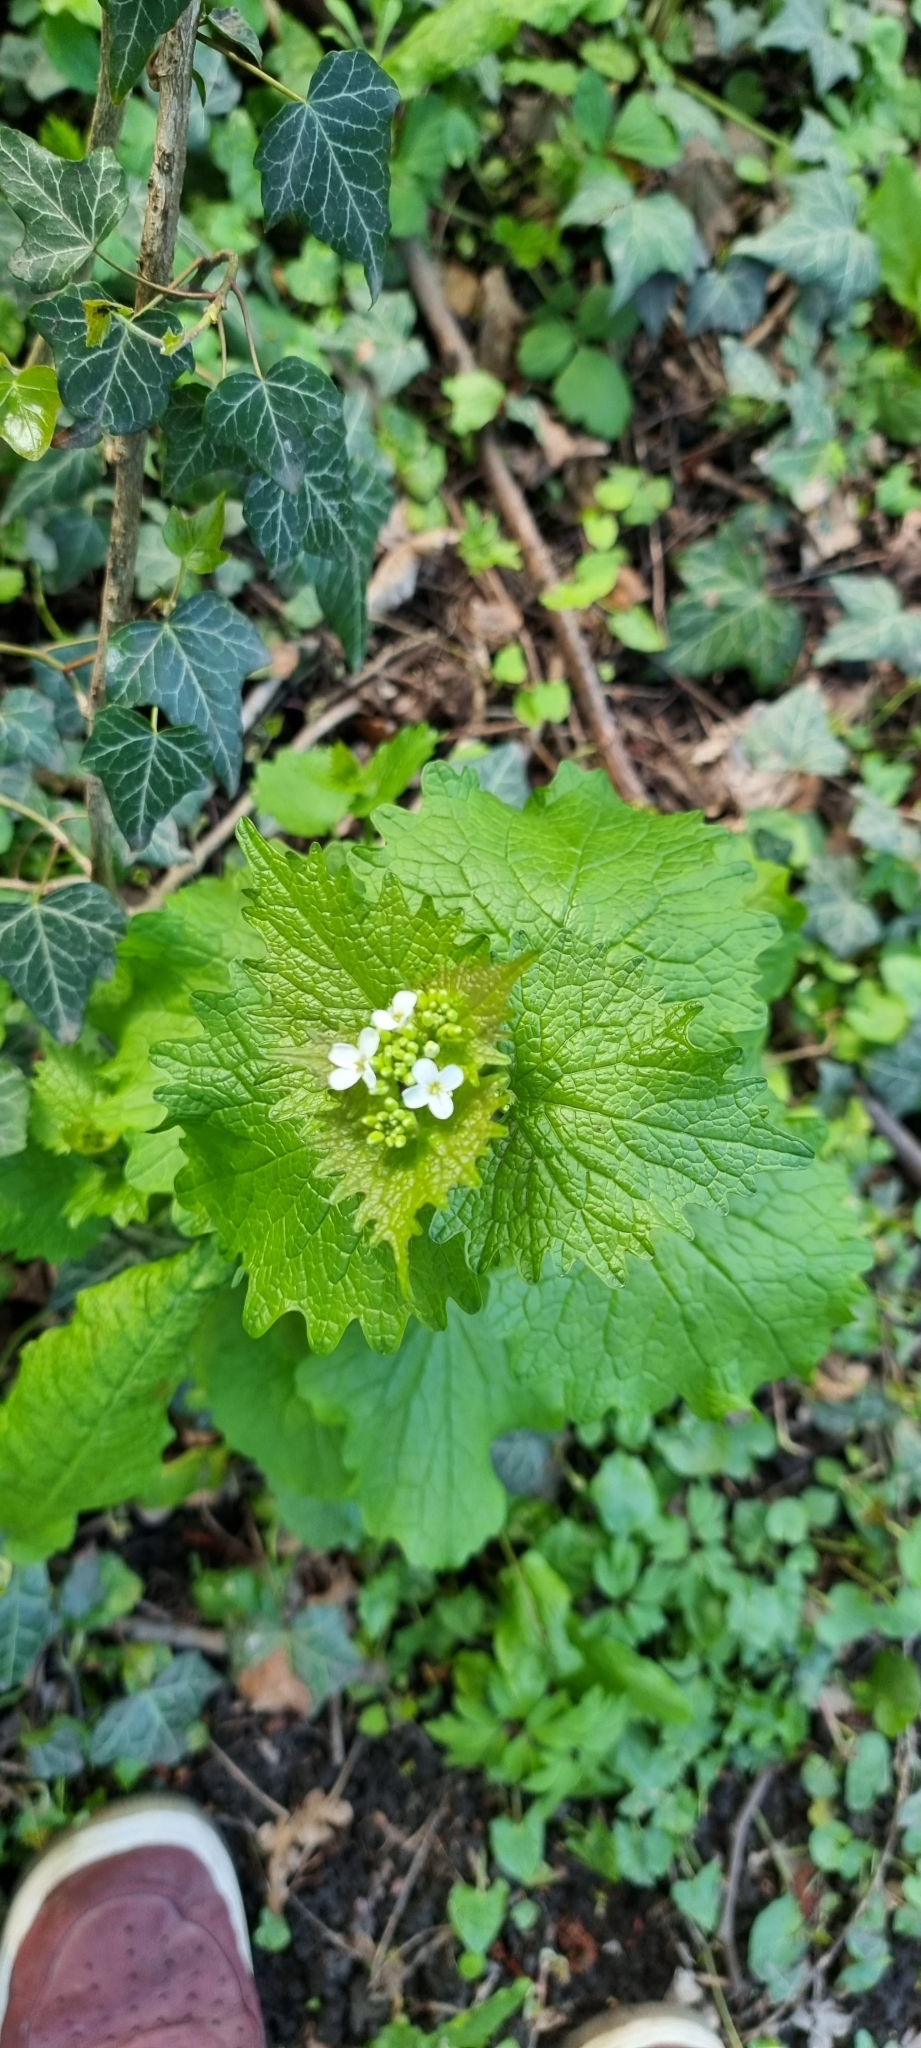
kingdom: Plantae
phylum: Tracheophyta
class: Magnoliopsida
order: Brassicales
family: Brassicaceae
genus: Alliaria
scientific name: Alliaria petiolata
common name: Garlic mustard
